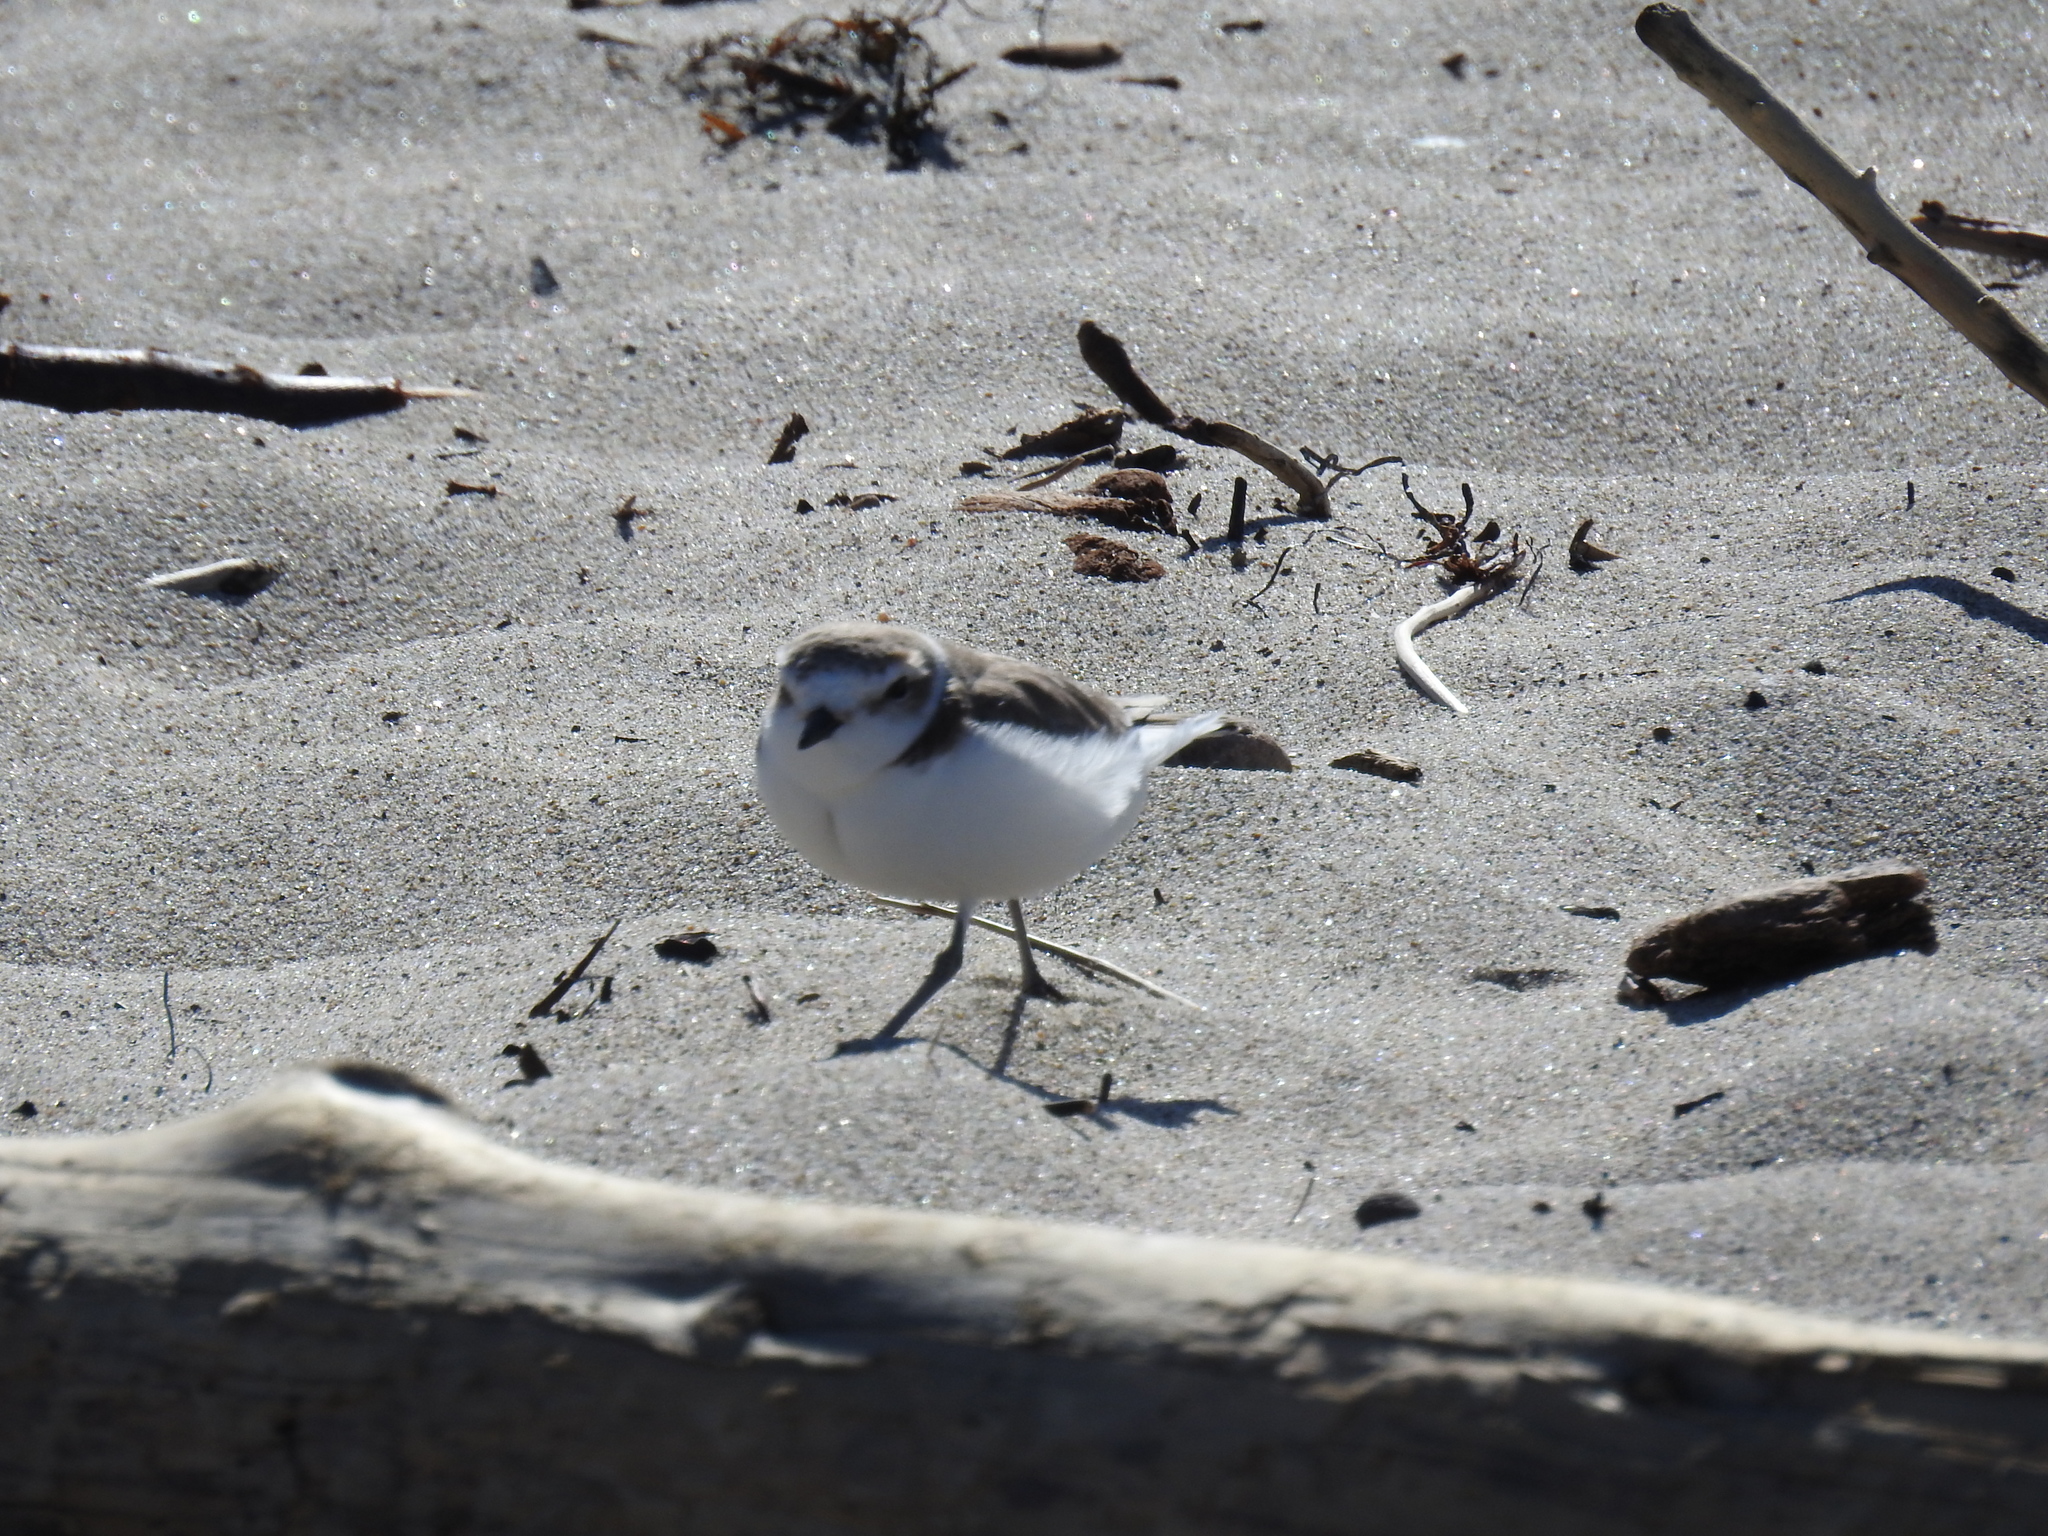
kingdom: Animalia
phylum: Chordata
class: Aves
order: Charadriiformes
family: Charadriidae
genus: Anarhynchus
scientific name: Anarhynchus
